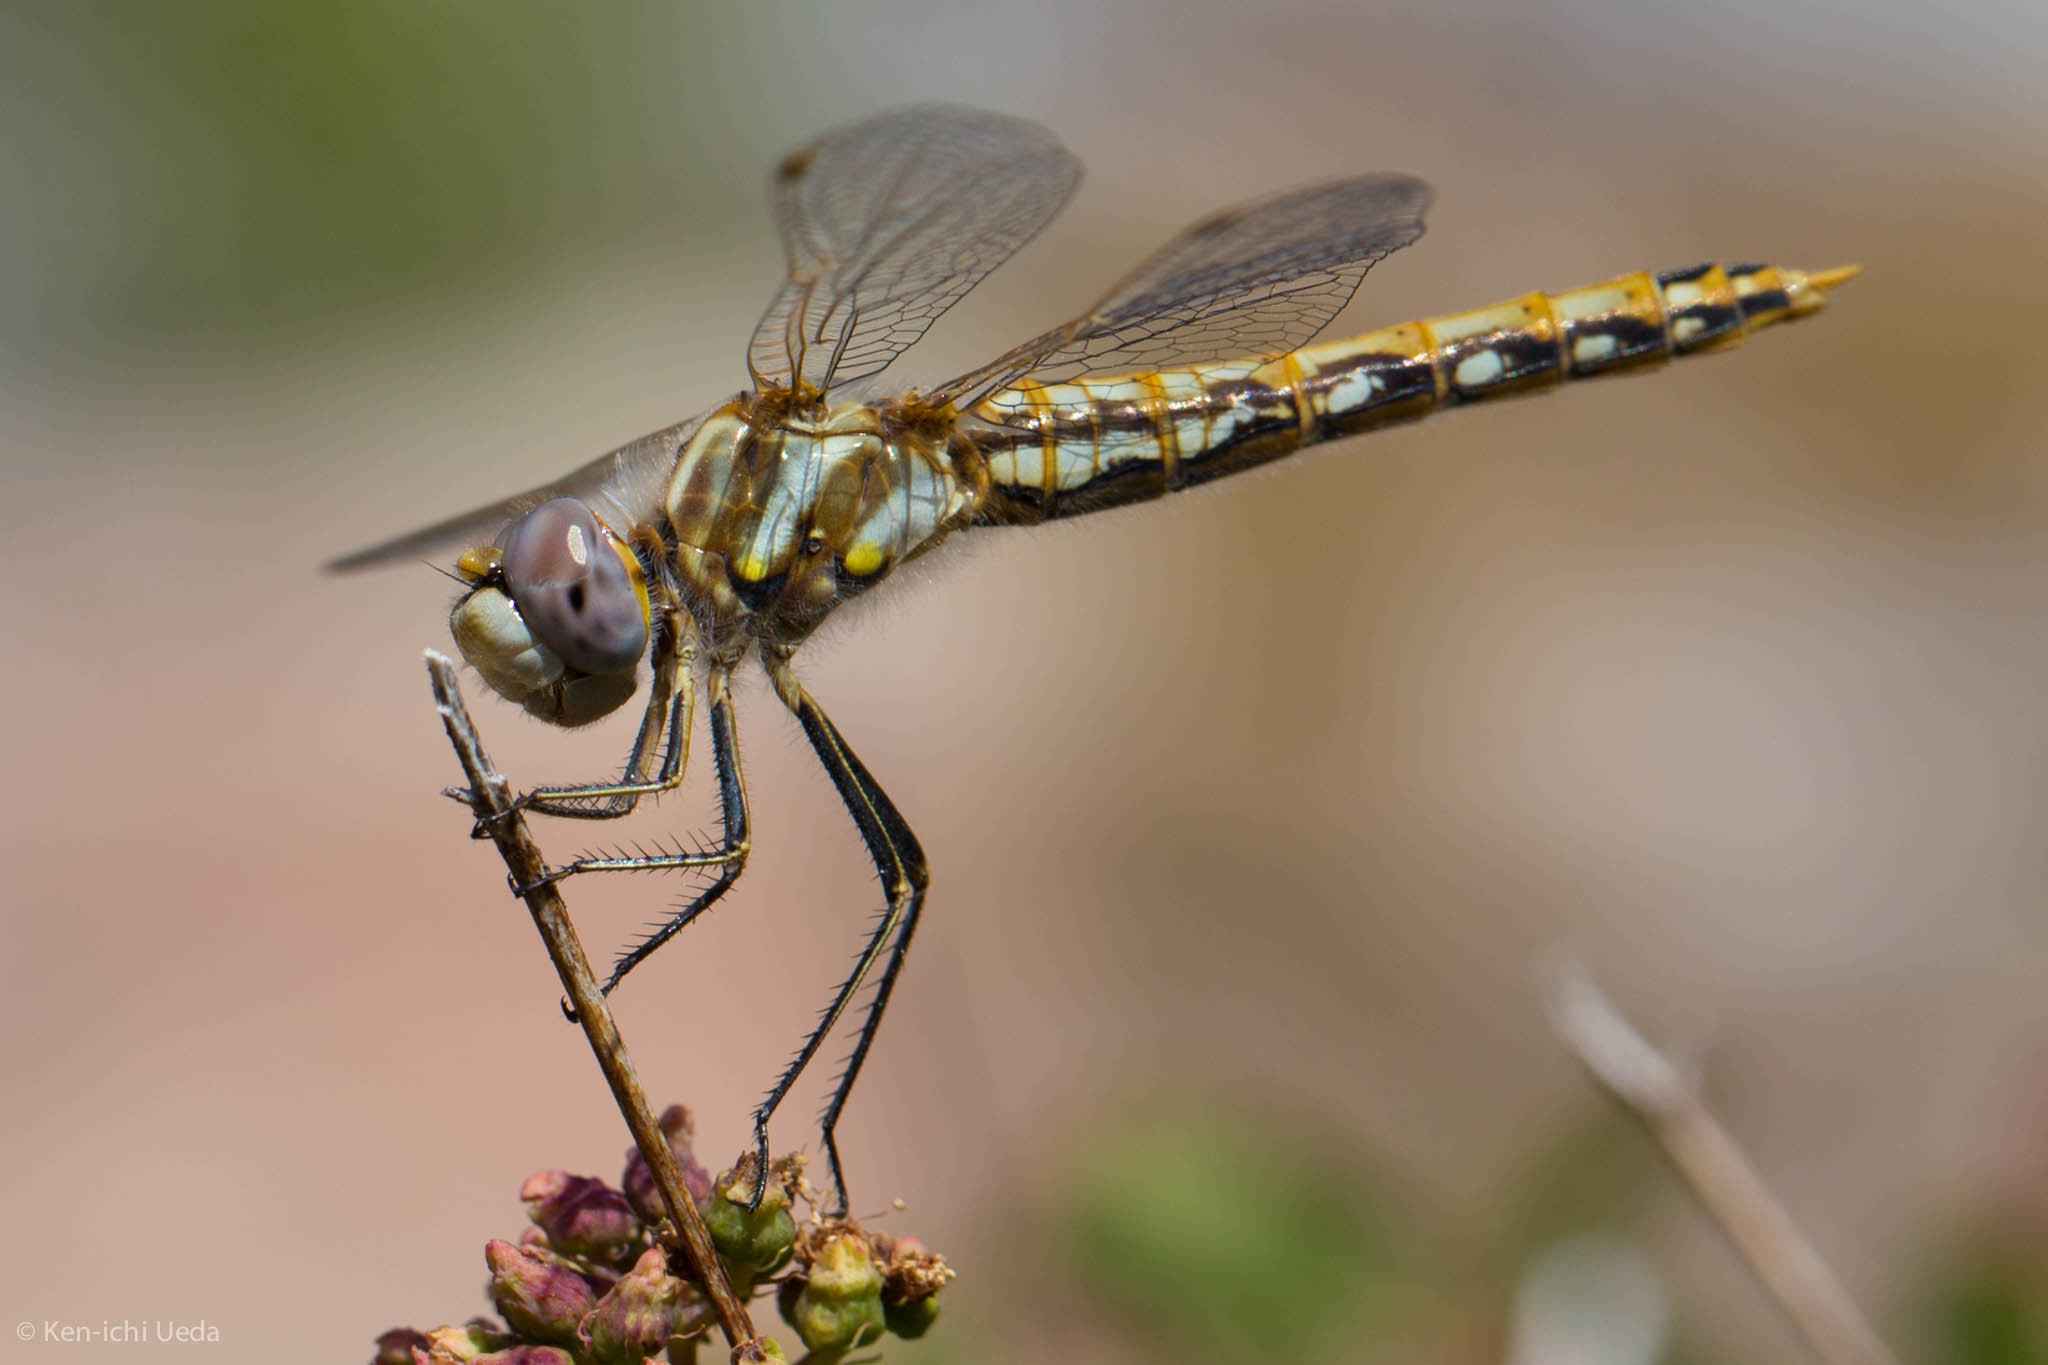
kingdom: Animalia
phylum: Arthropoda
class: Insecta
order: Odonata
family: Libellulidae
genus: Sympetrum
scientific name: Sympetrum corruptum
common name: Variegated meadowhawk
